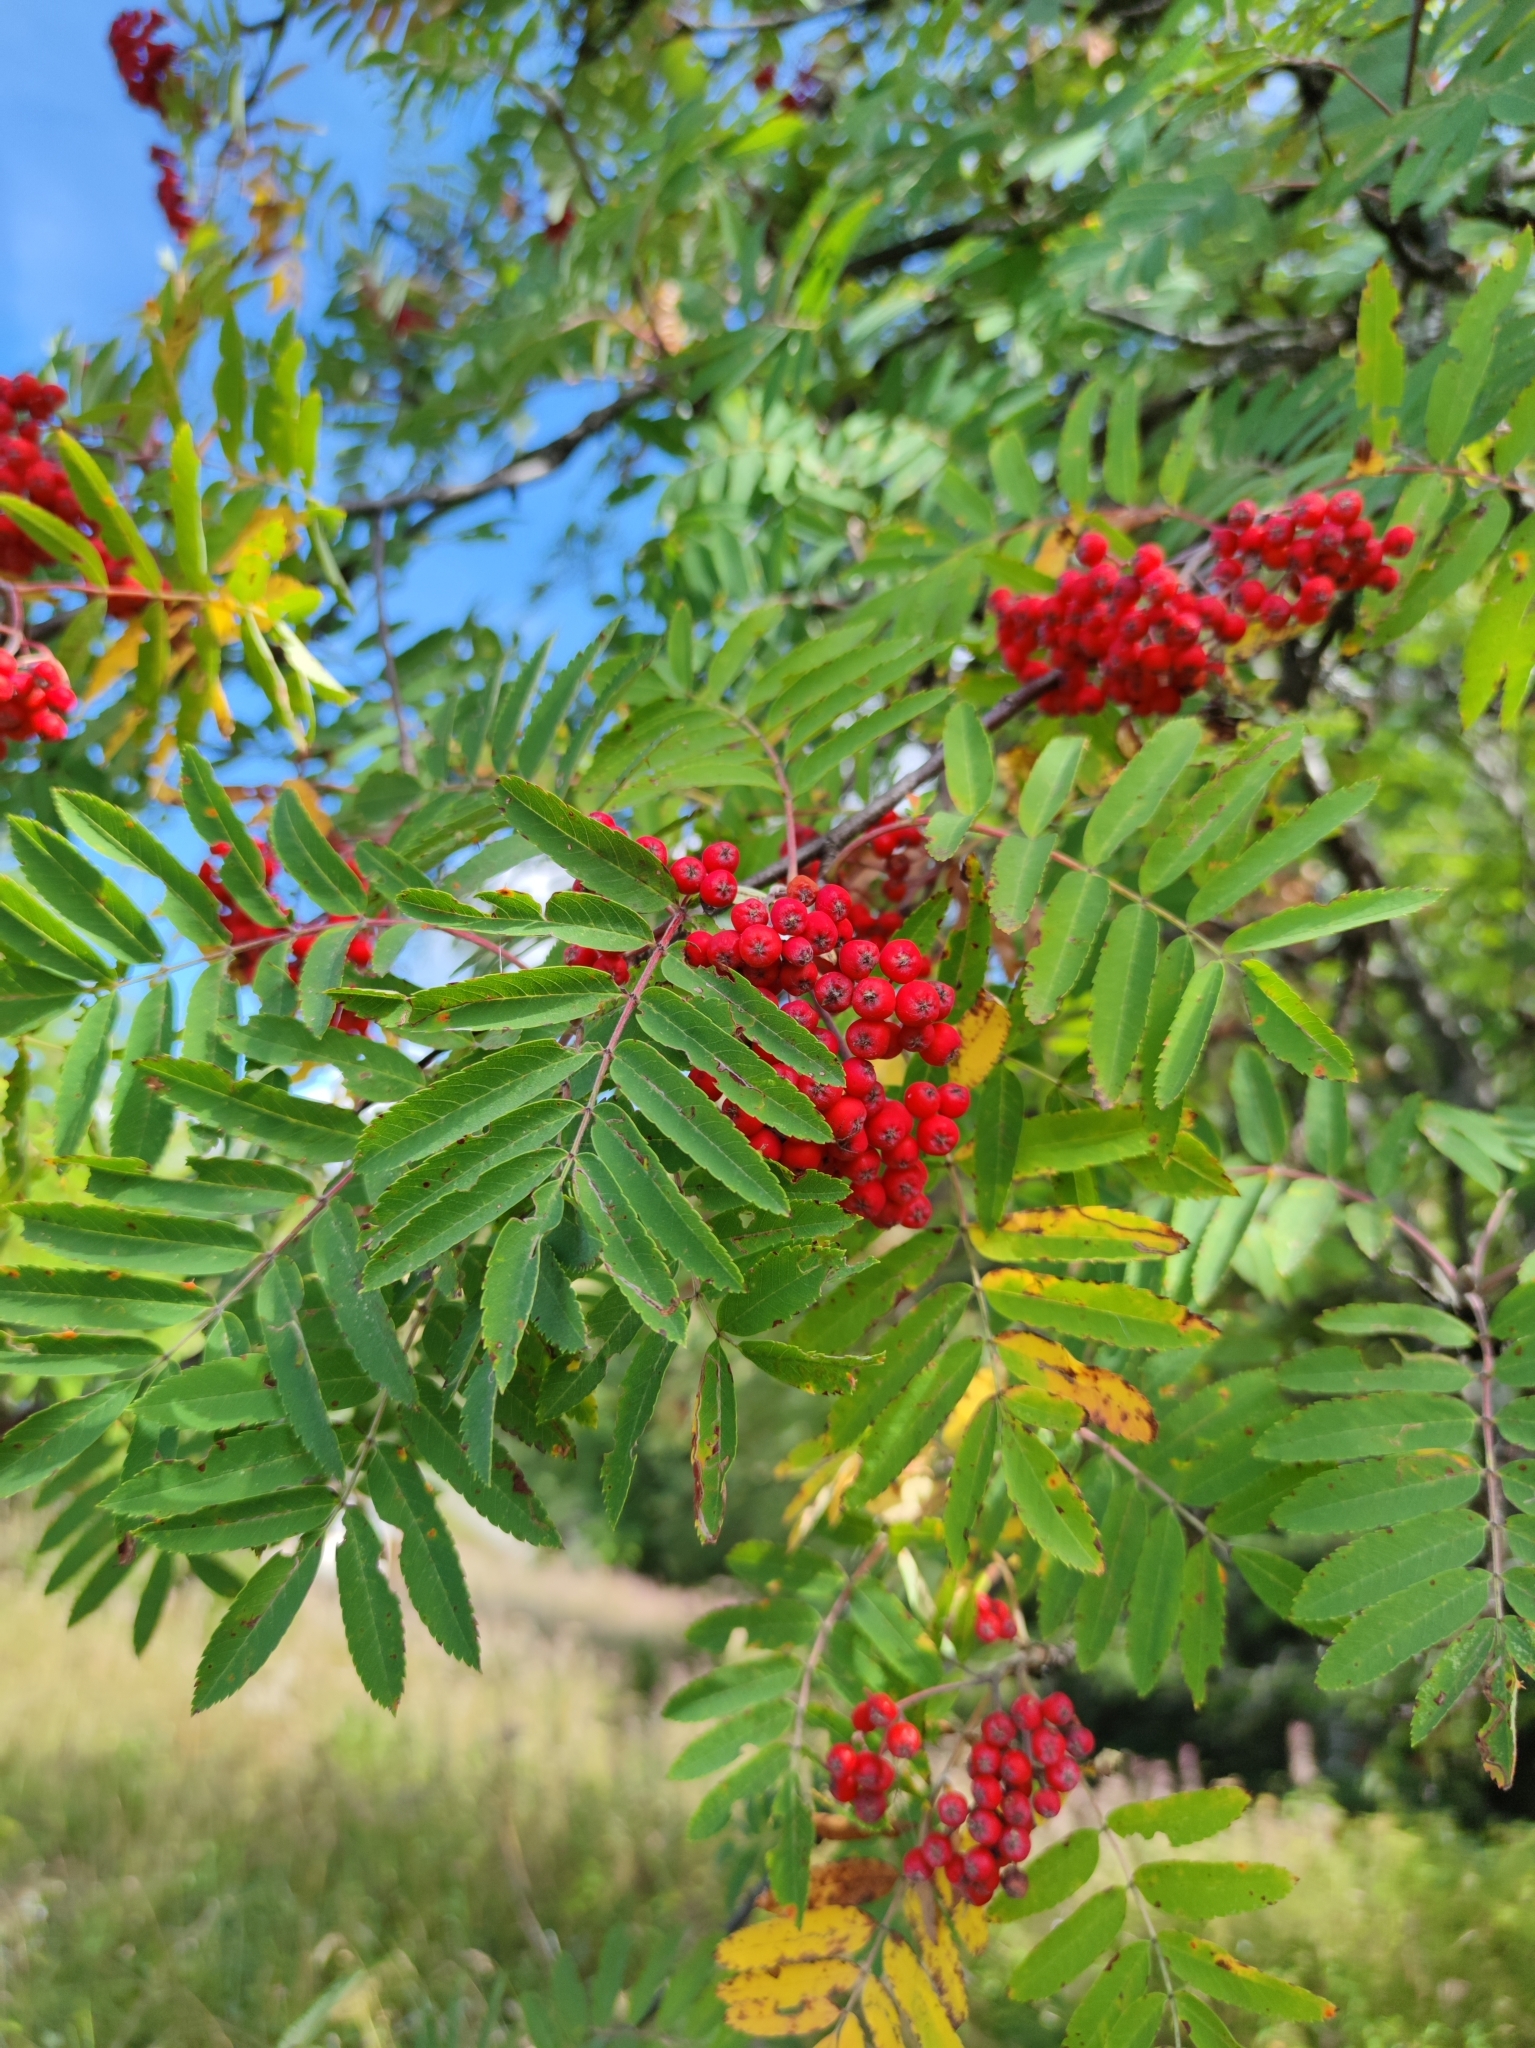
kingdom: Plantae
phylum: Tracheophyta
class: Magnoliopsida
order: Rosales
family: Rosaceae
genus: Sorbus
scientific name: Sorbus aucuparia
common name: Rowan
